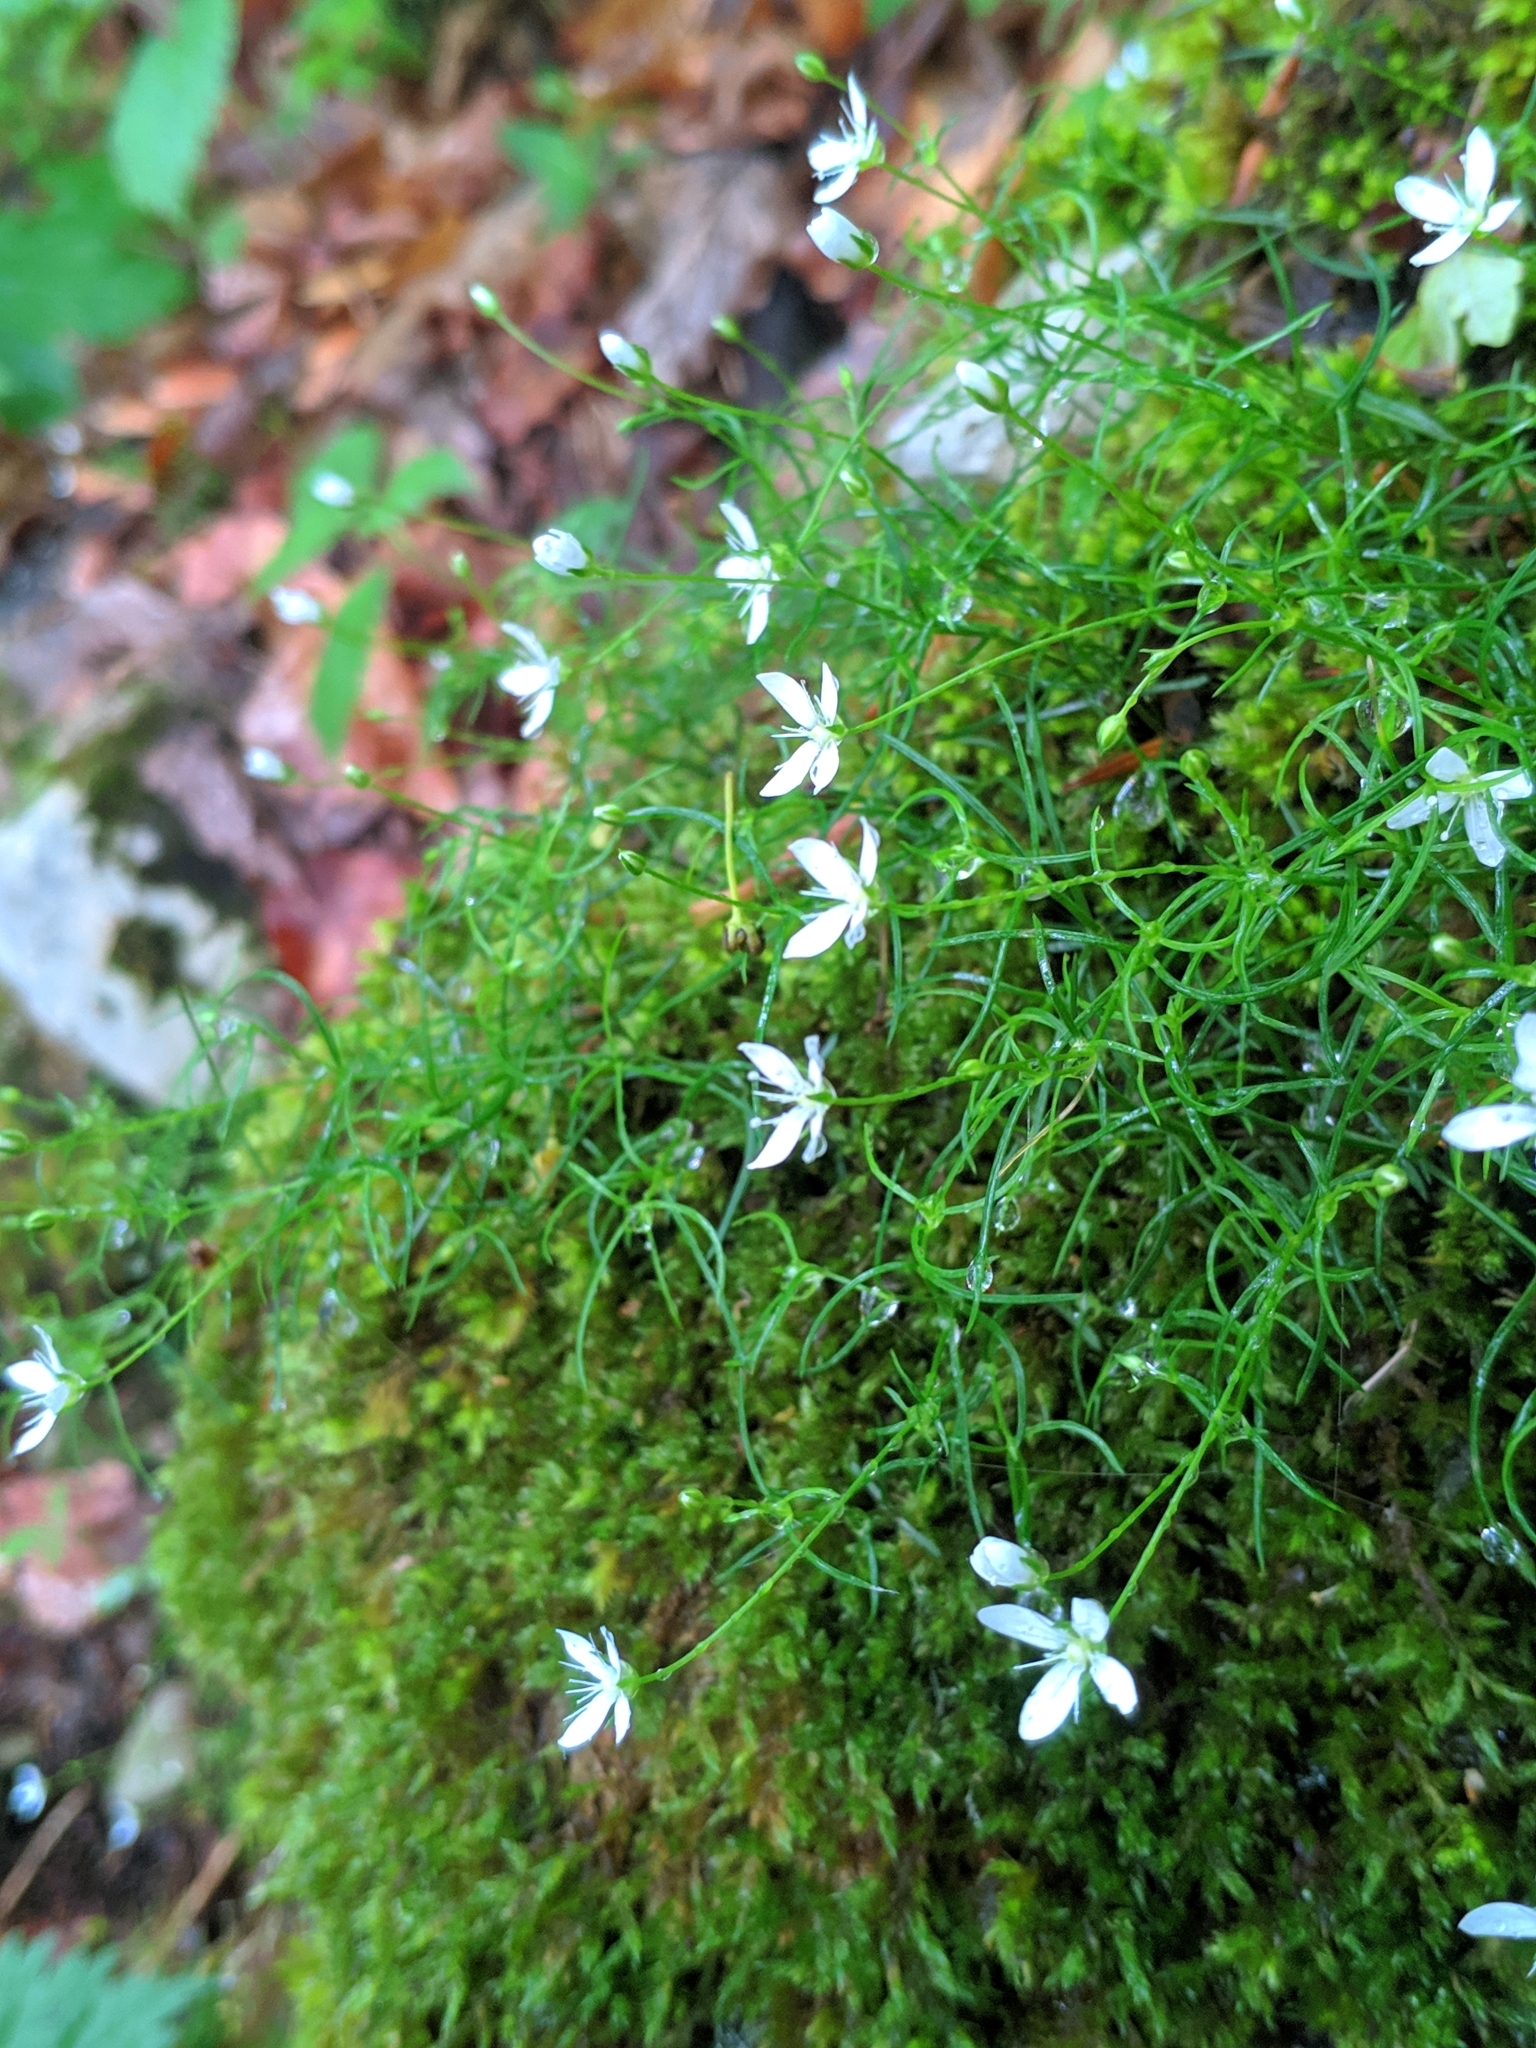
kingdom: Plantae
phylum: Tracheophyta
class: Magnoliopsida
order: Caryophyllales
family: Caryophyllaceae
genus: Moehringia
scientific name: Moehringia muscosa
